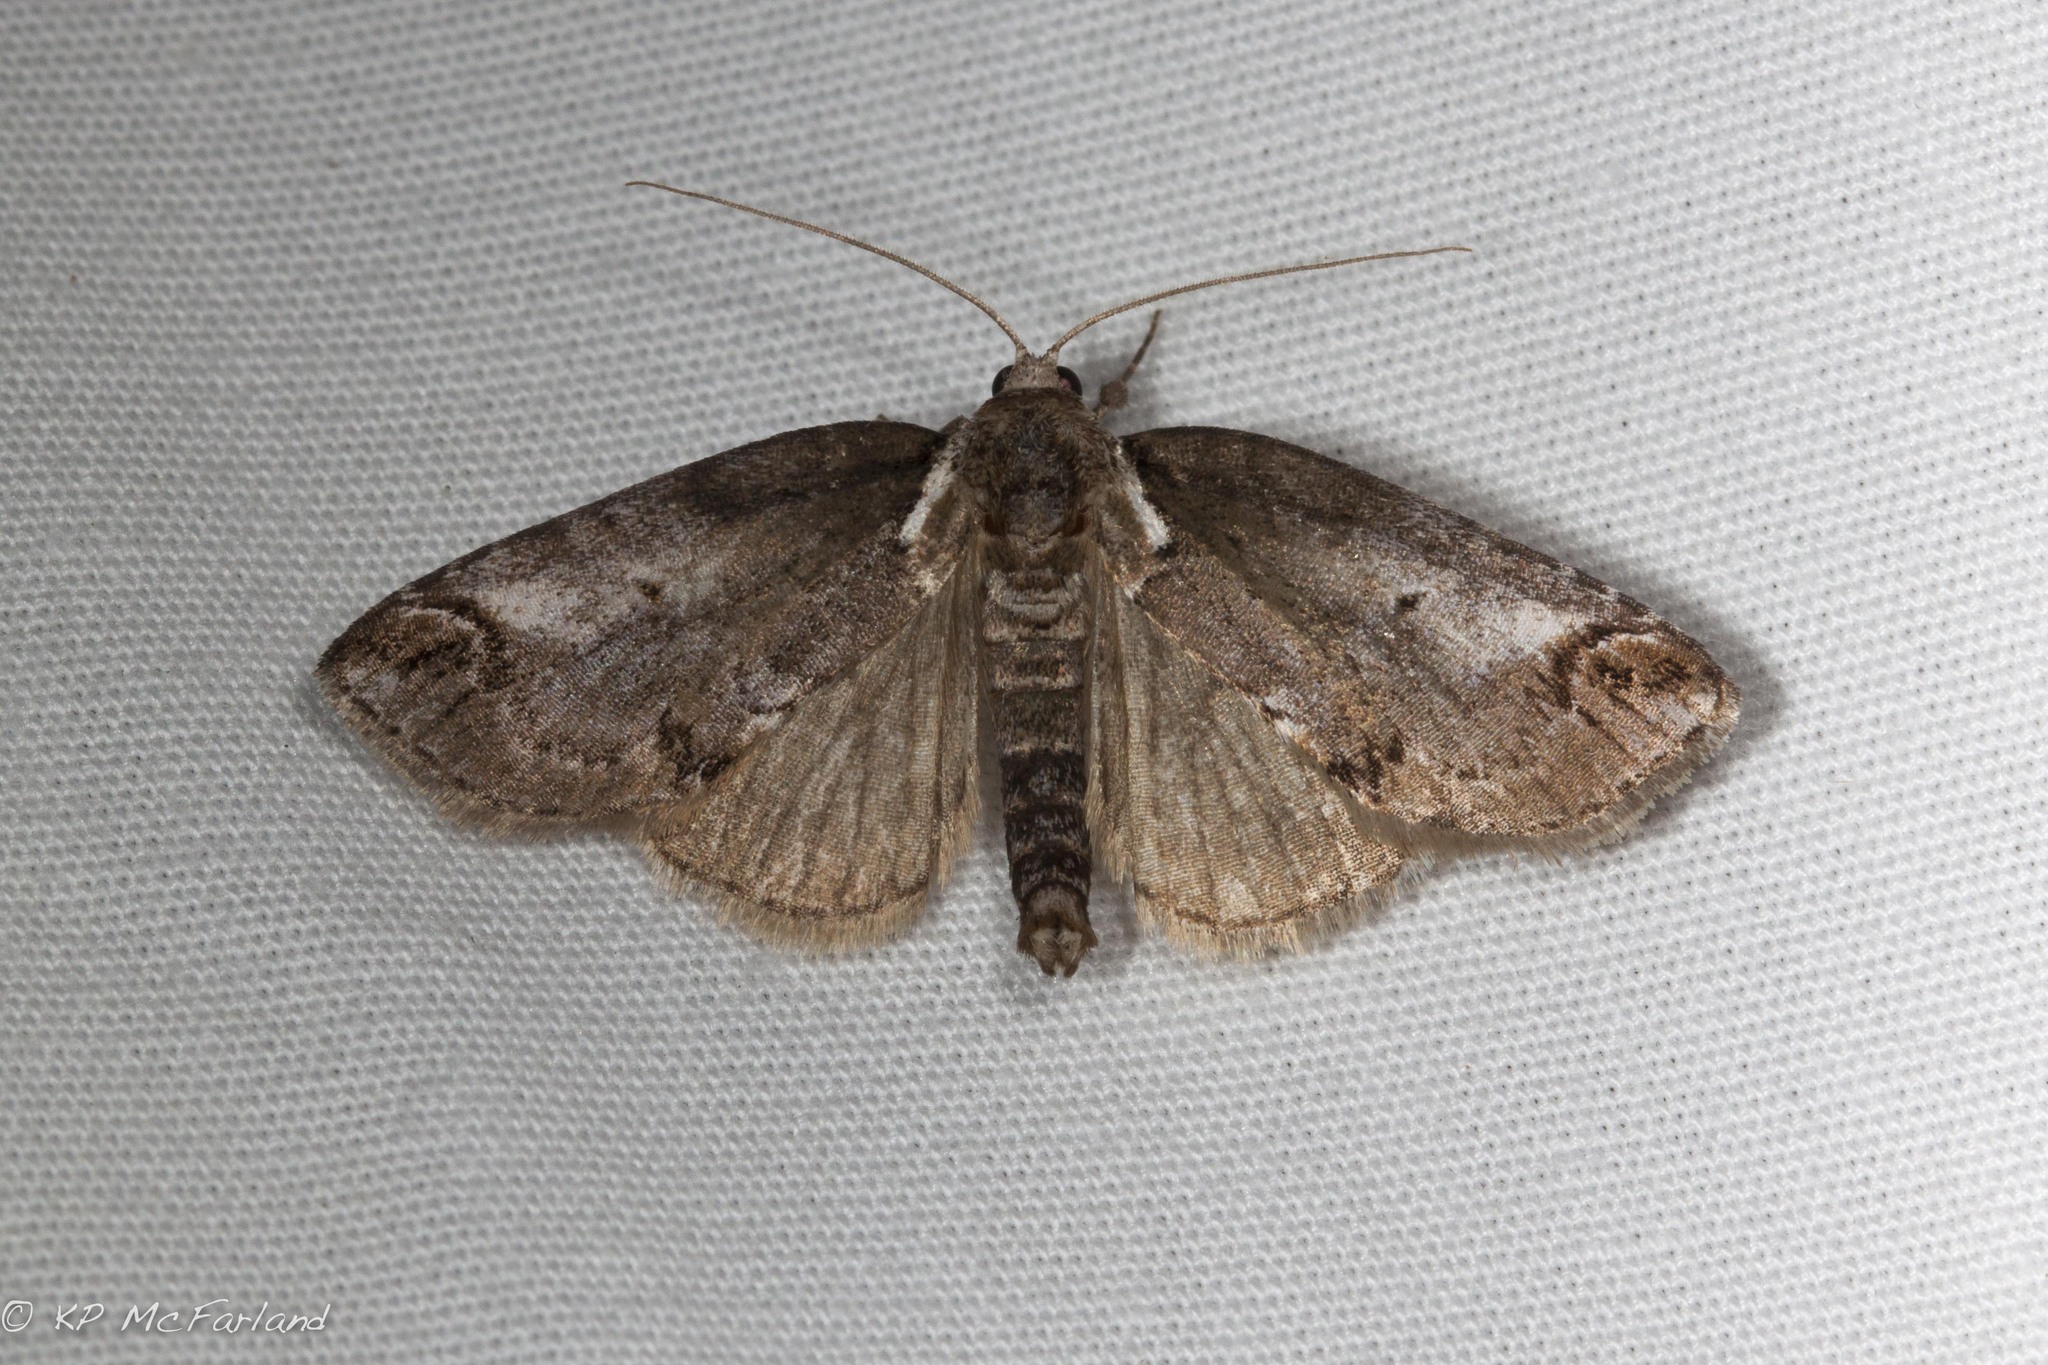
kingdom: Animalia
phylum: Arthropoda
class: Insecta
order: Lepidoptera
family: Nolidae
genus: Baileya
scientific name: Baileya ophthalmica
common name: Eyed baileya moth
